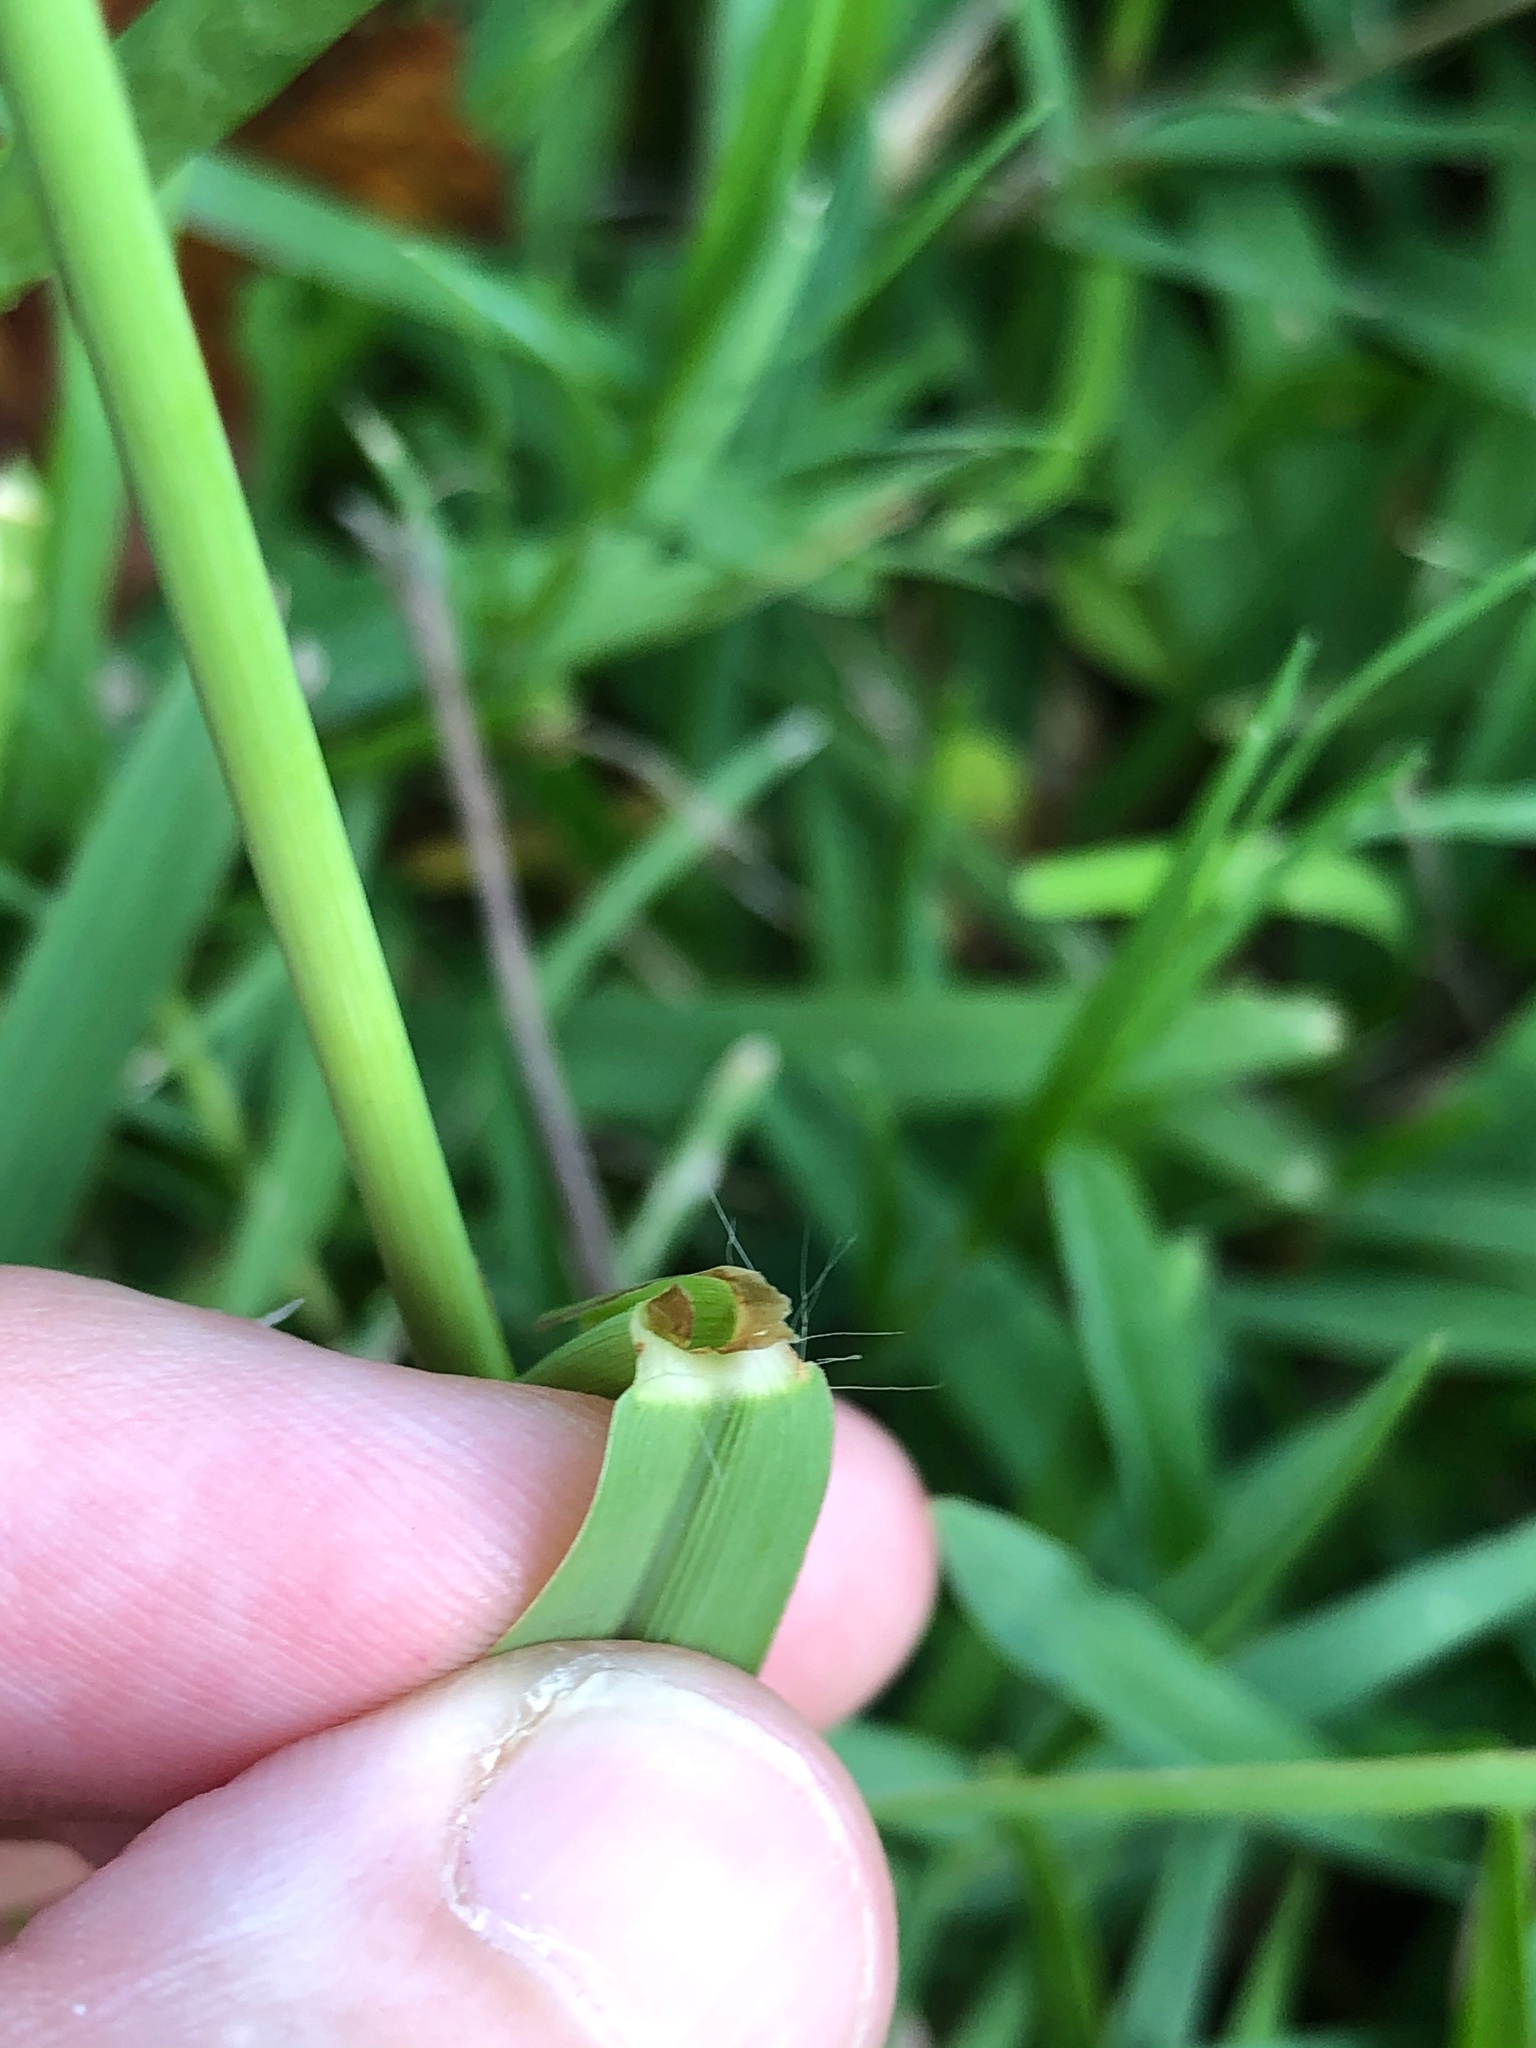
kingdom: Plantae
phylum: Tracheophyta
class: Liliopsida
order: Poales
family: Poaceae
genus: Paspalum
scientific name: Paspalum dilatatum
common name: Dallisgrass
